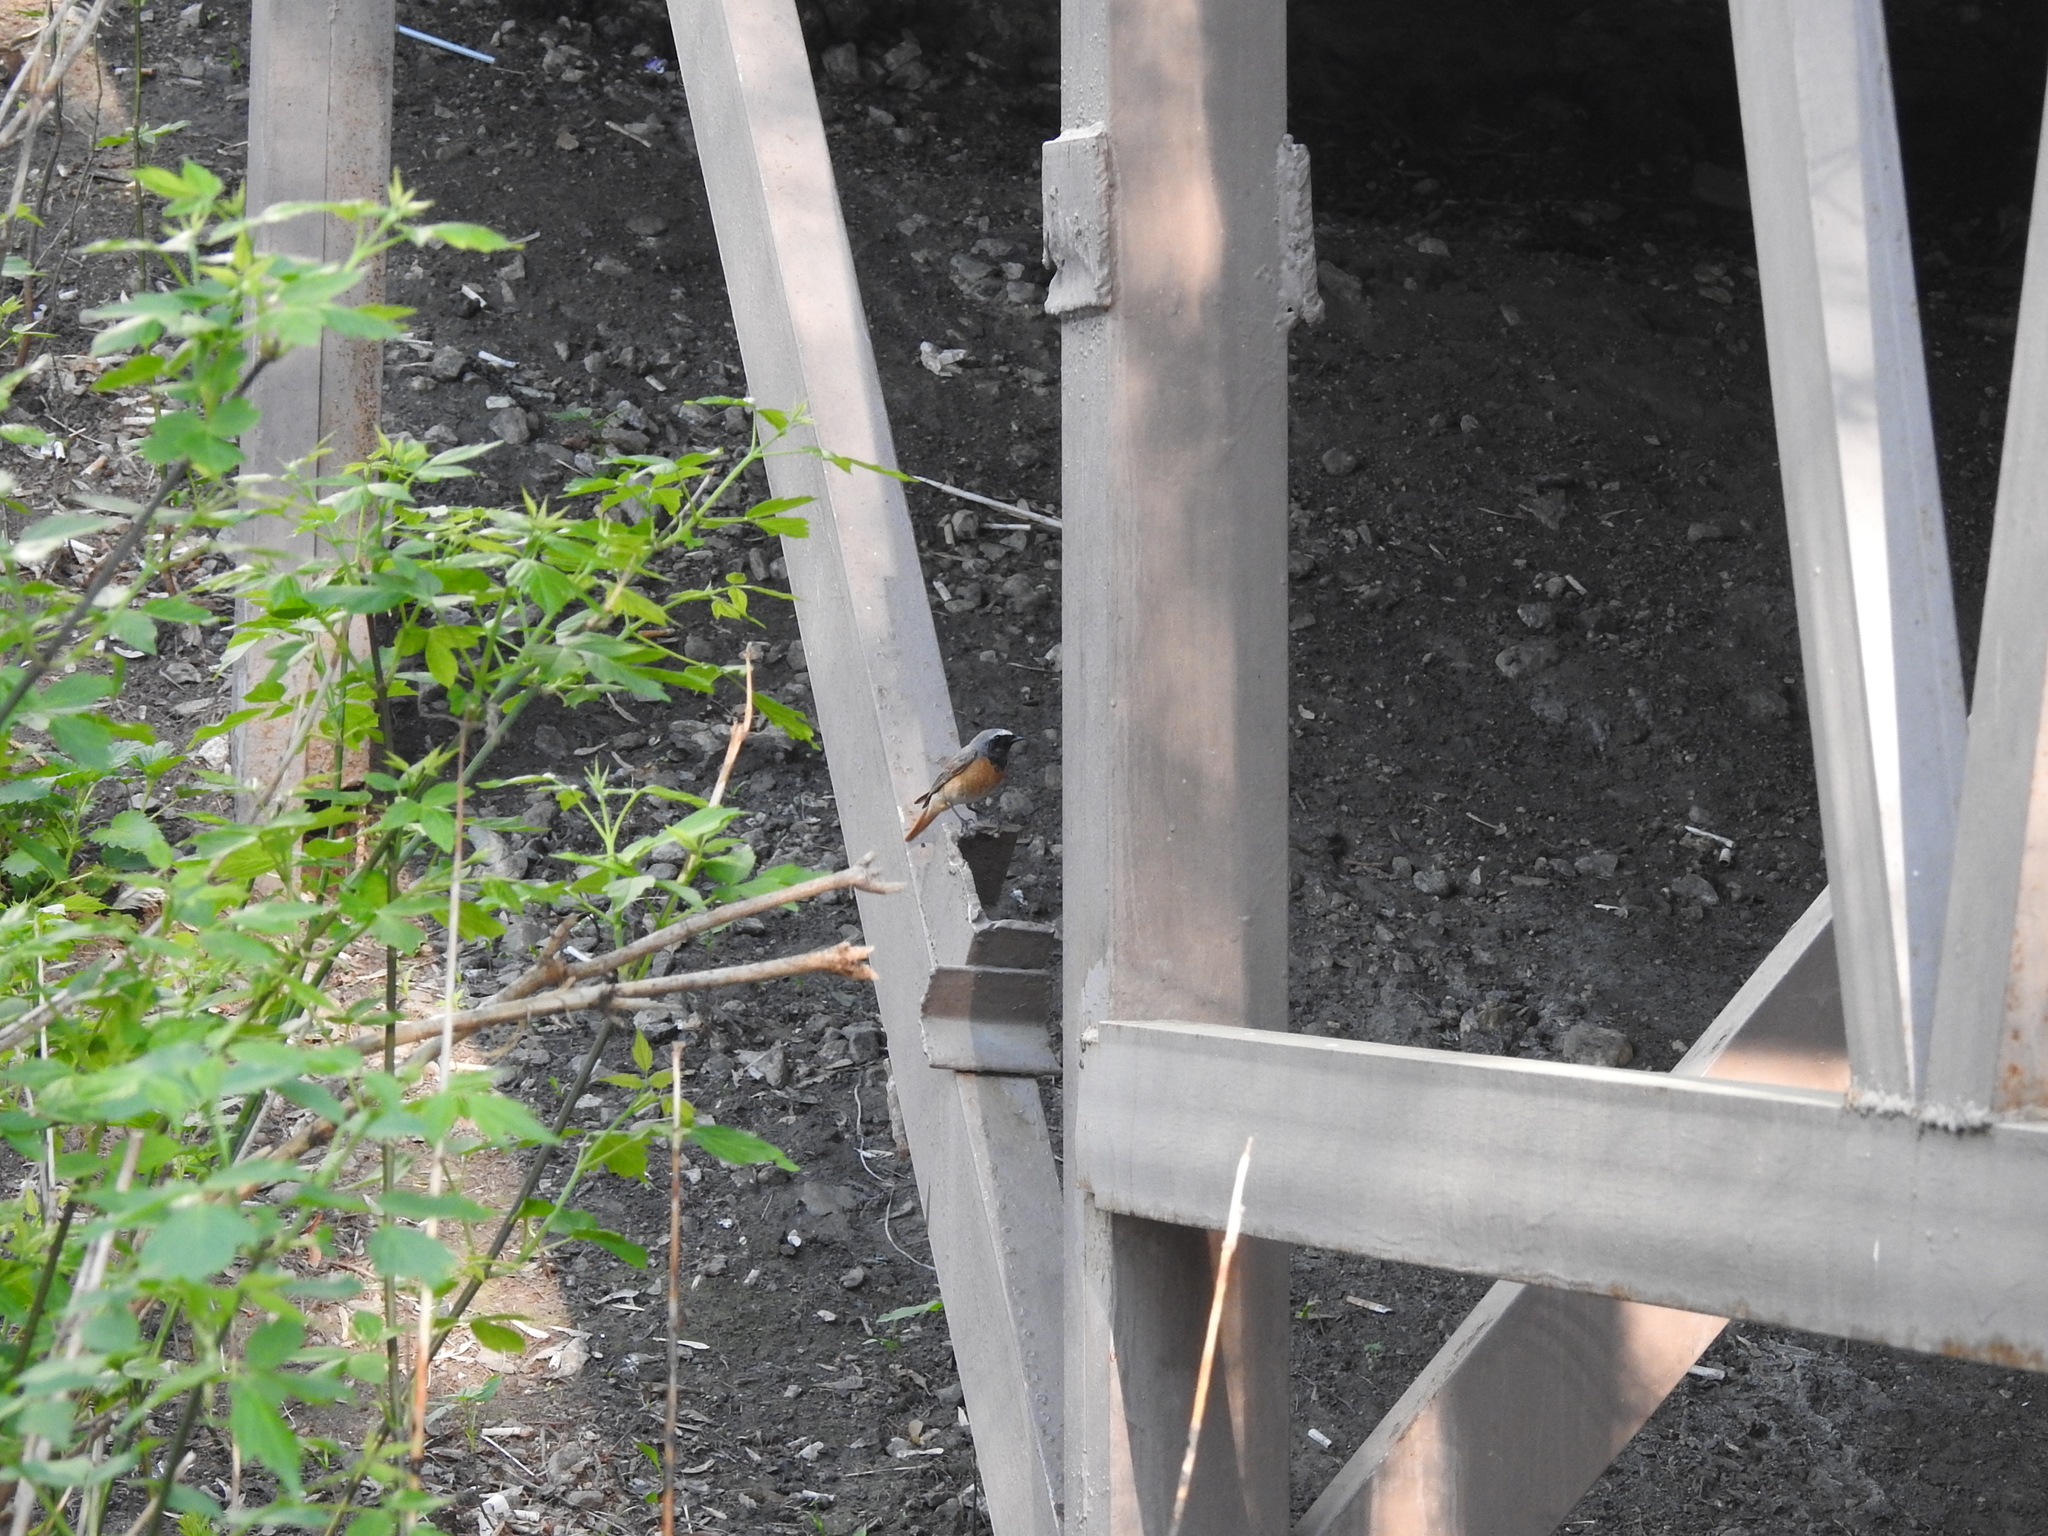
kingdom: Animalia
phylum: Chordata
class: Aves
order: Passeriformes
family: Muscicapidae
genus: Phoenicurus
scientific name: Phoenicurus phoenicurus
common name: Common redstart
